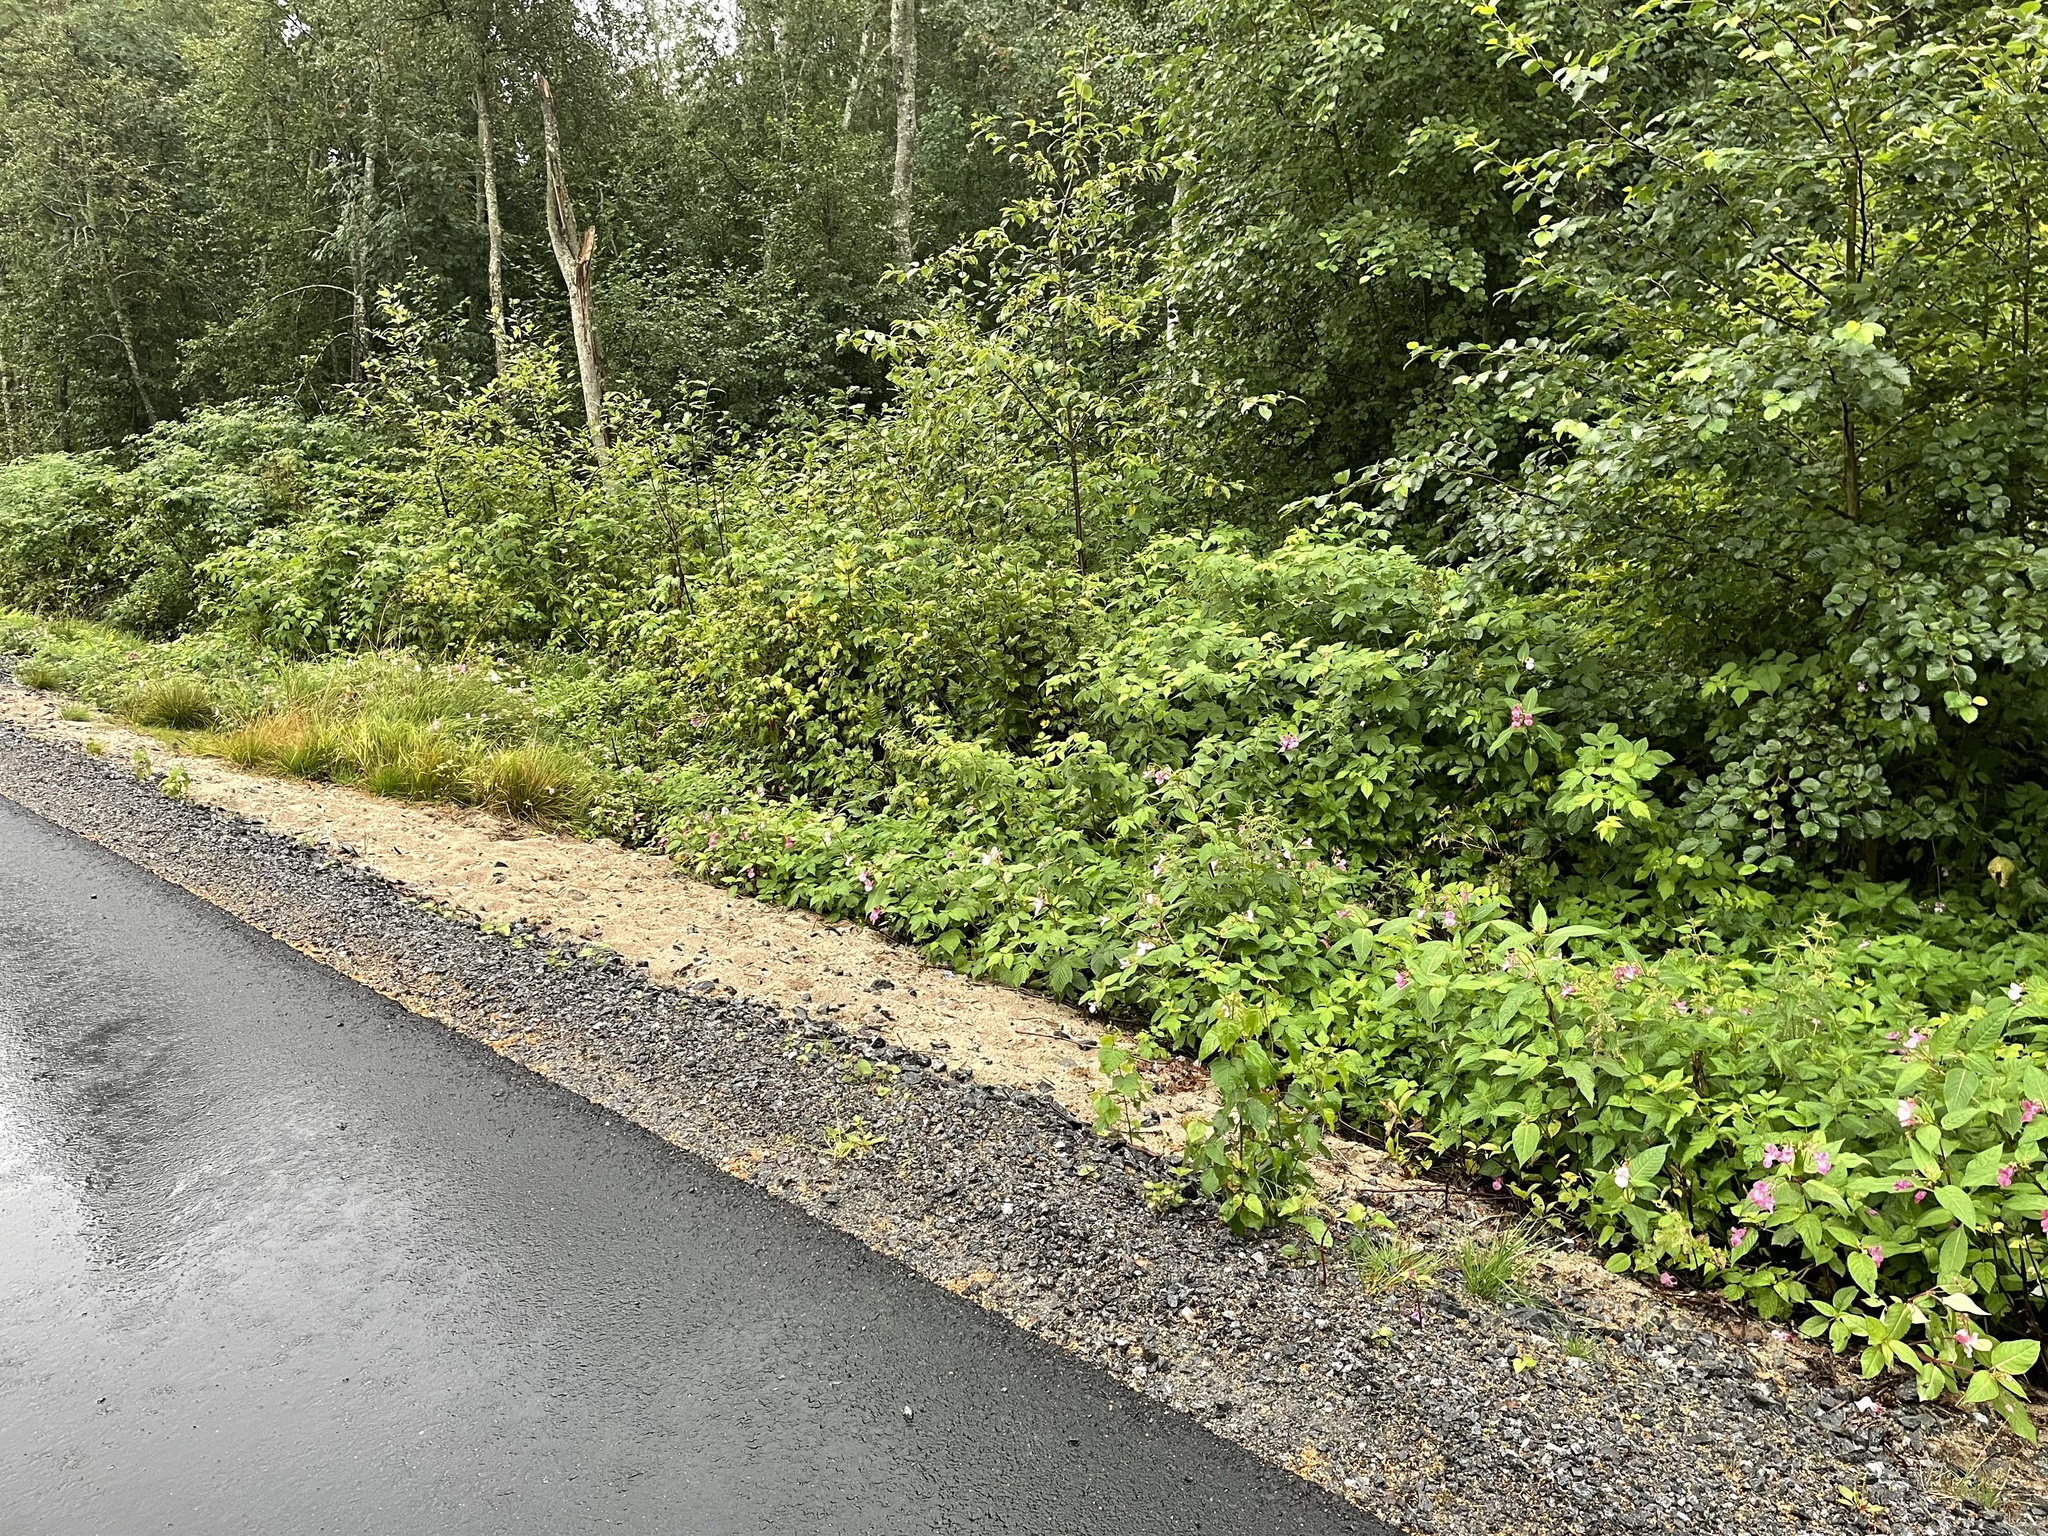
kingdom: Plantae
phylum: Tracheophyta
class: Magnoliopsida
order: Ericales
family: Balsaminaceae
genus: Impatiens
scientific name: Impatiens glandulifera
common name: Himalayan balsam
